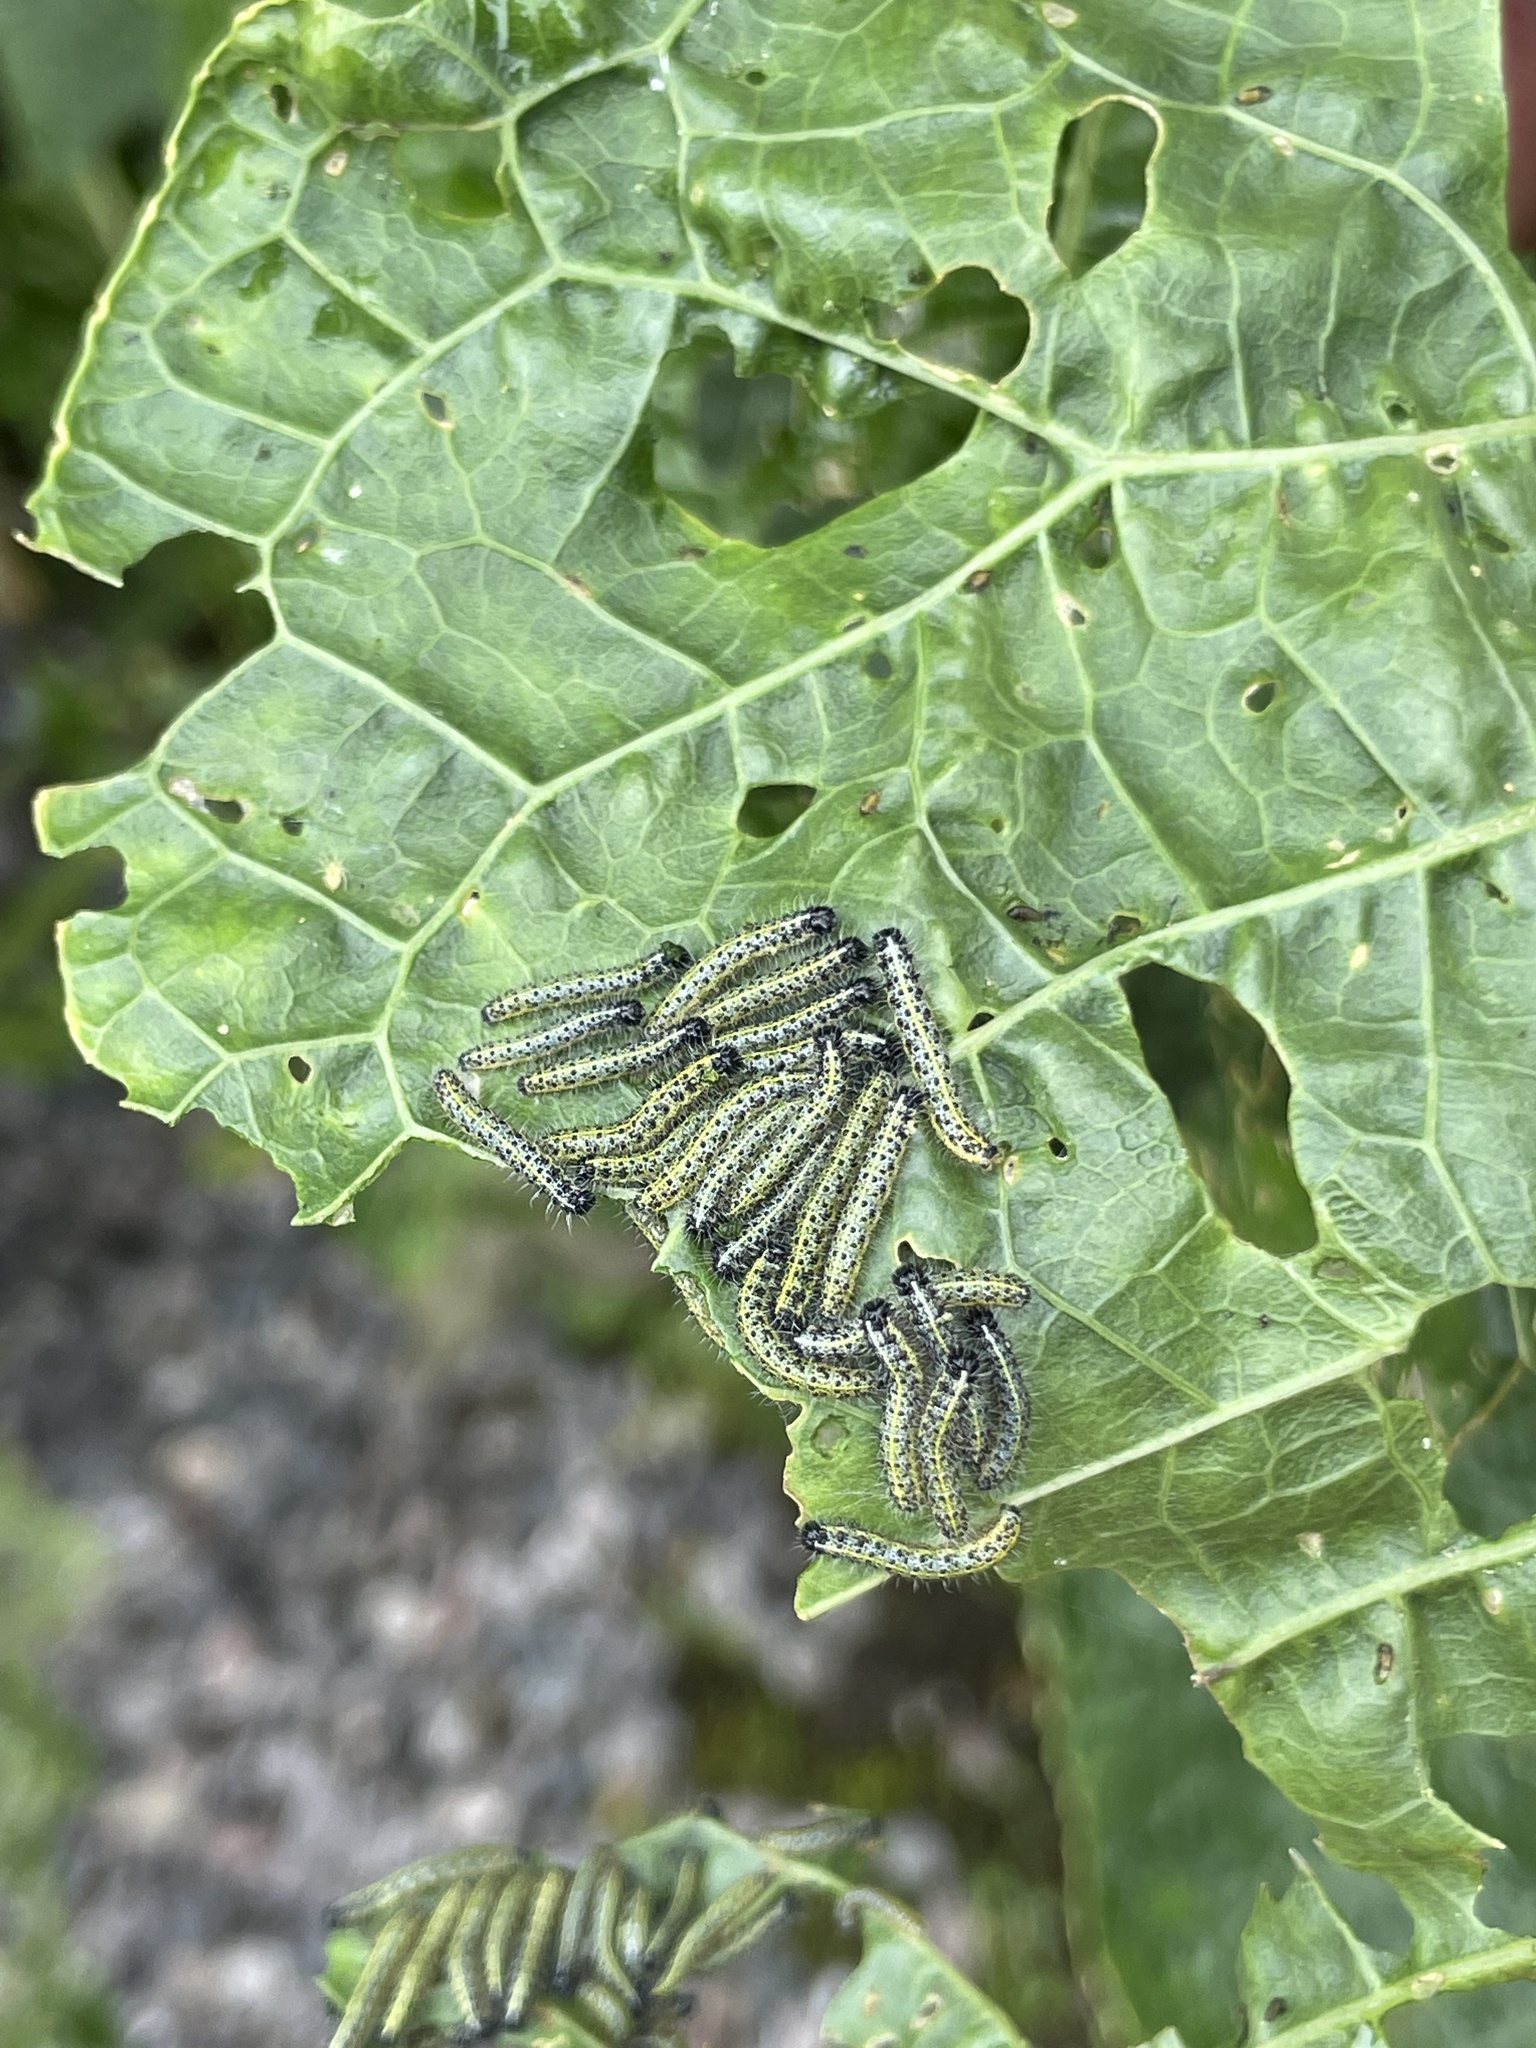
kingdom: Animalia
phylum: Arthropoda
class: Insecta
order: Lepidoptera
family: Pieridae
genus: Pieris
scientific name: Pieris brassicae
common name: Large white
